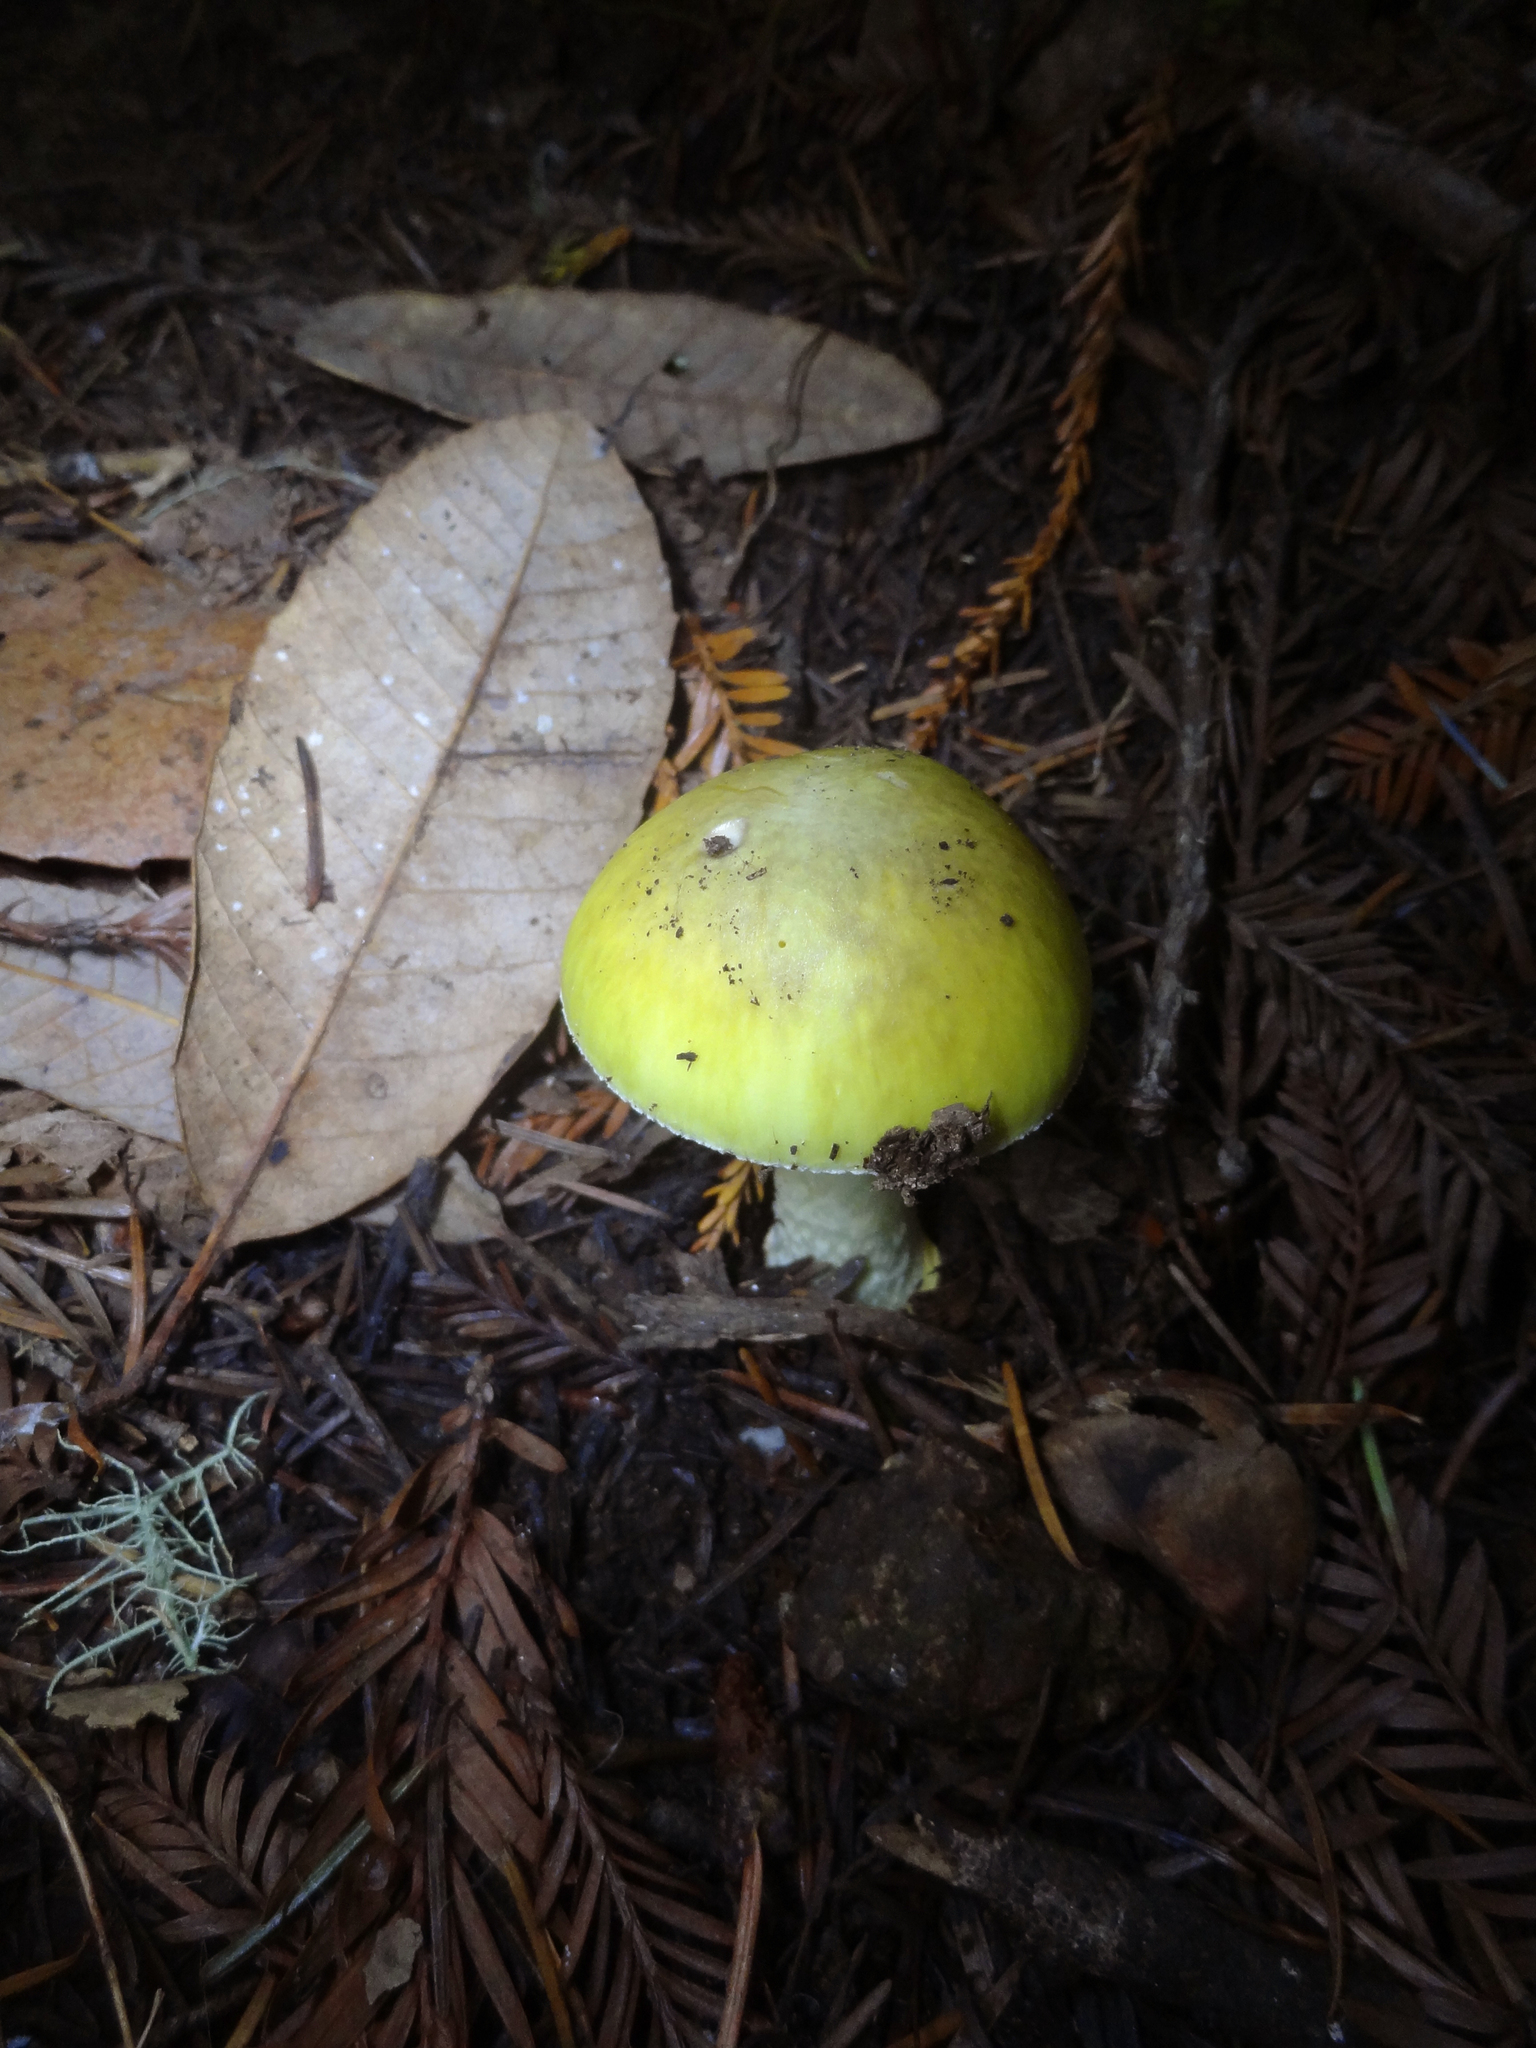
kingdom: Fungi
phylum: Basidiomycota
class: Agaricomycetes
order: Agaricales
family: Amanitaceae
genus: Amanita
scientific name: Amanita phalloides
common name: Death cap
